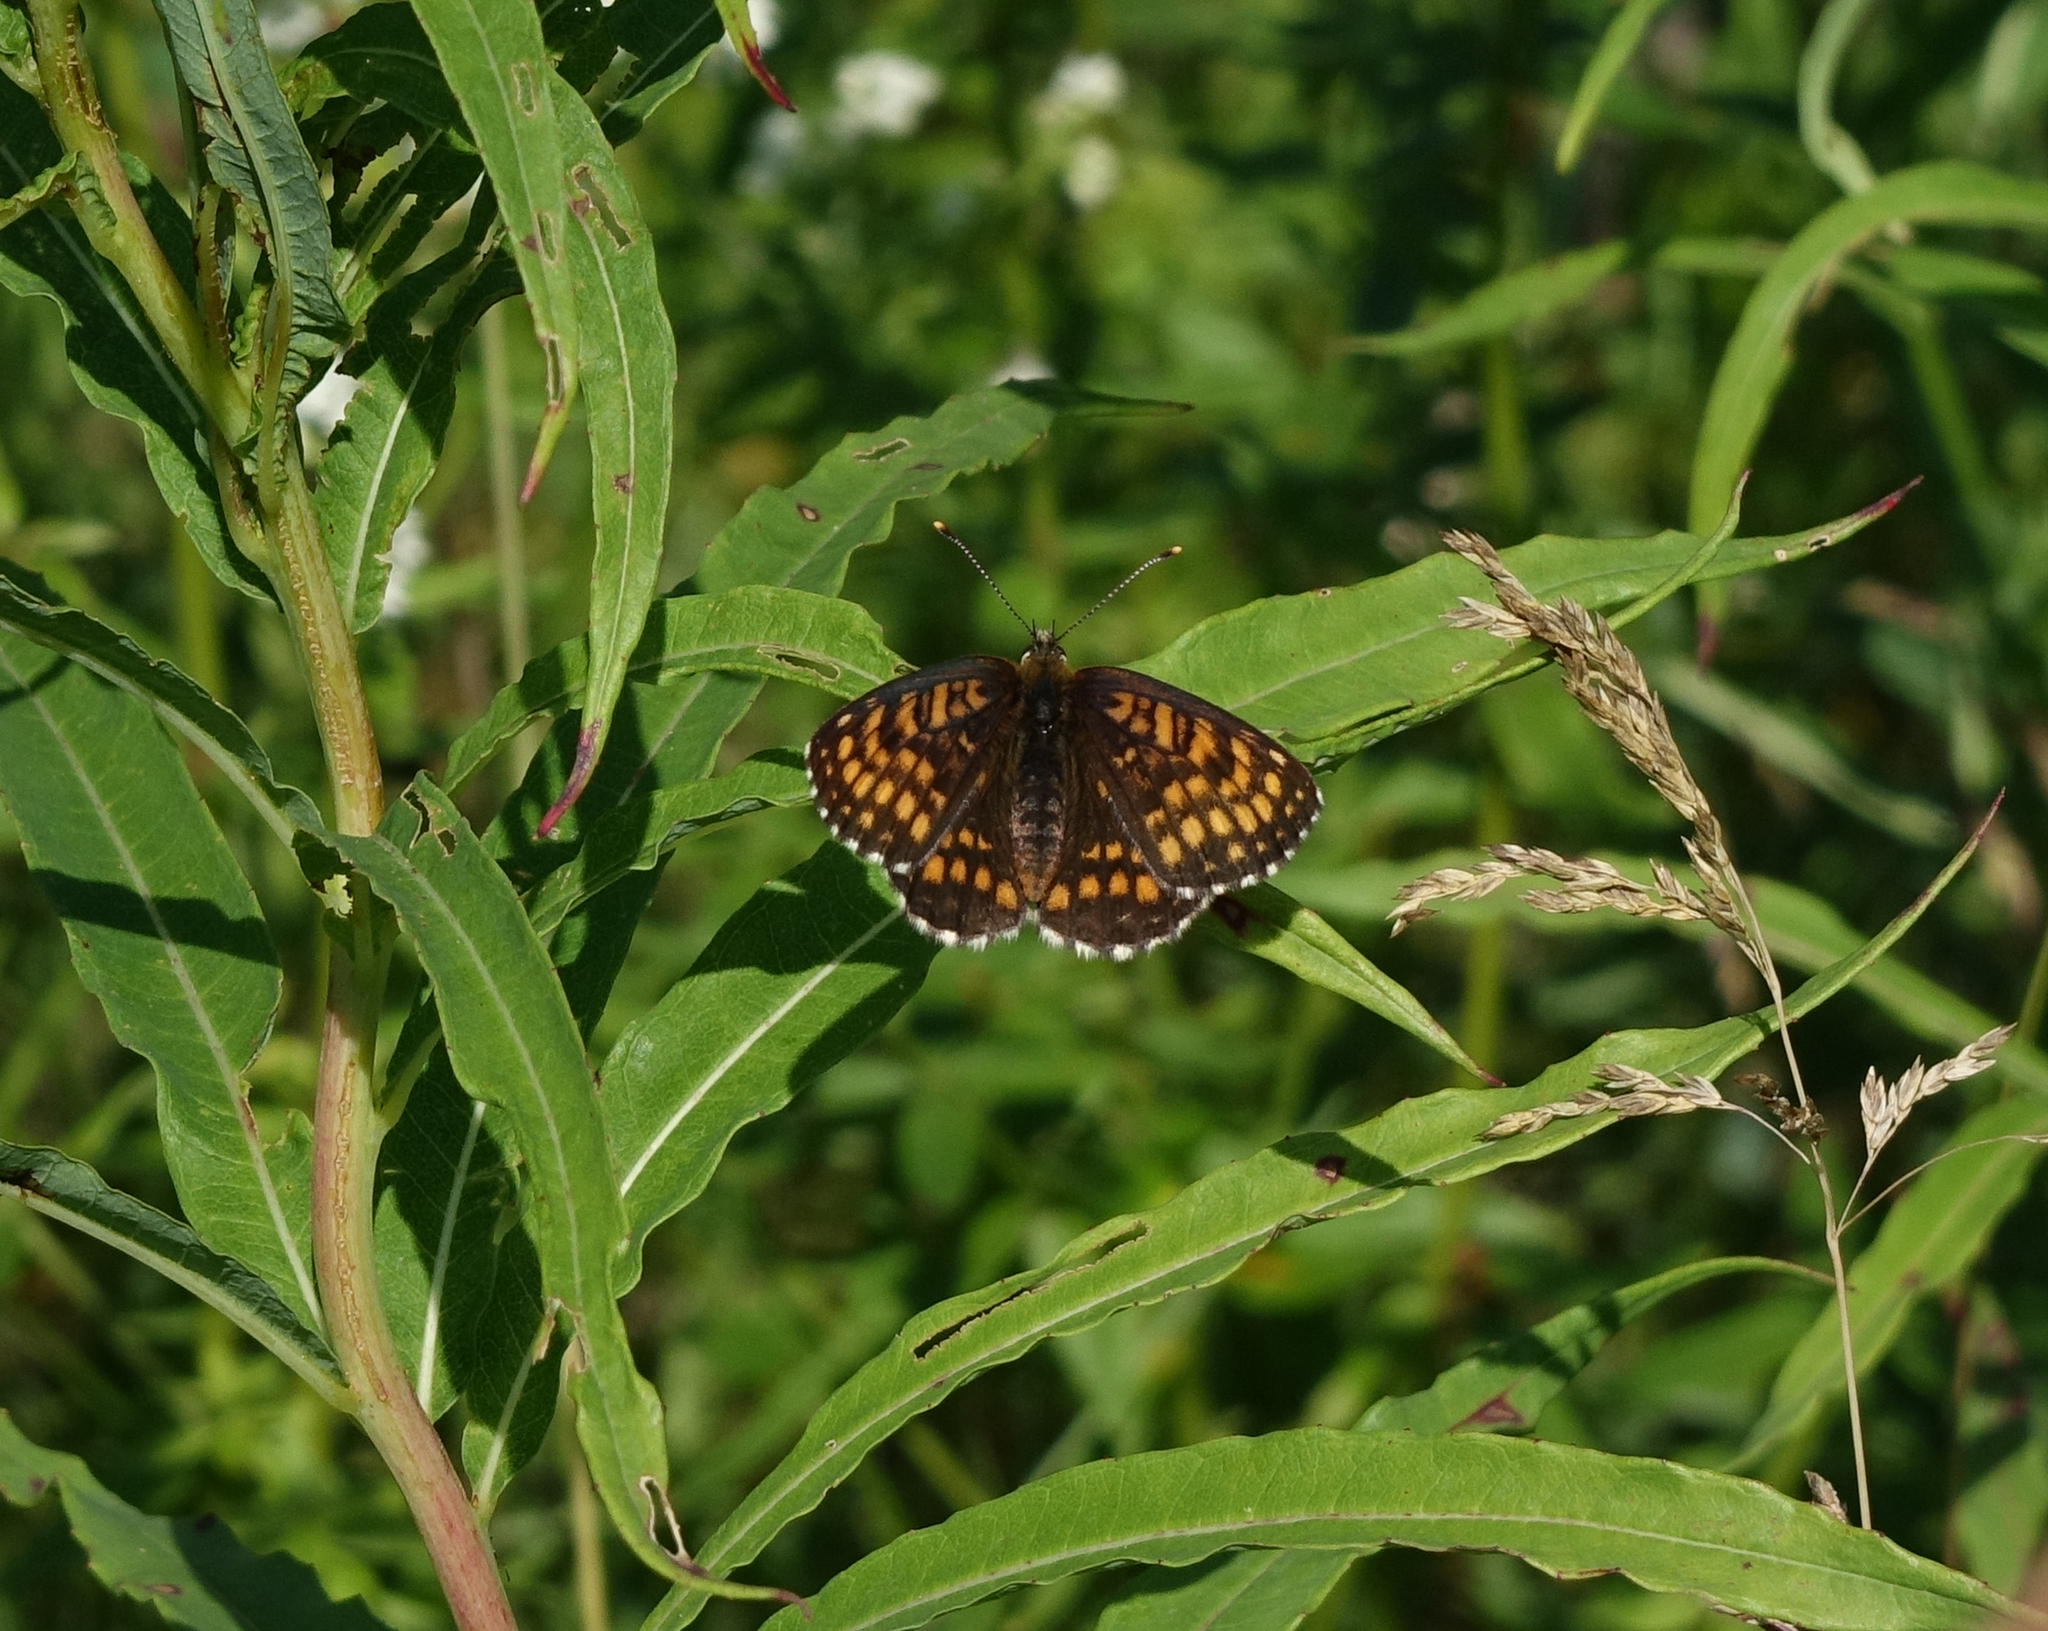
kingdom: Animalia
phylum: Arthropoda
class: Insecta
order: Lepidoptera
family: Nymphalidae
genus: Melitaea
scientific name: Melitaea
